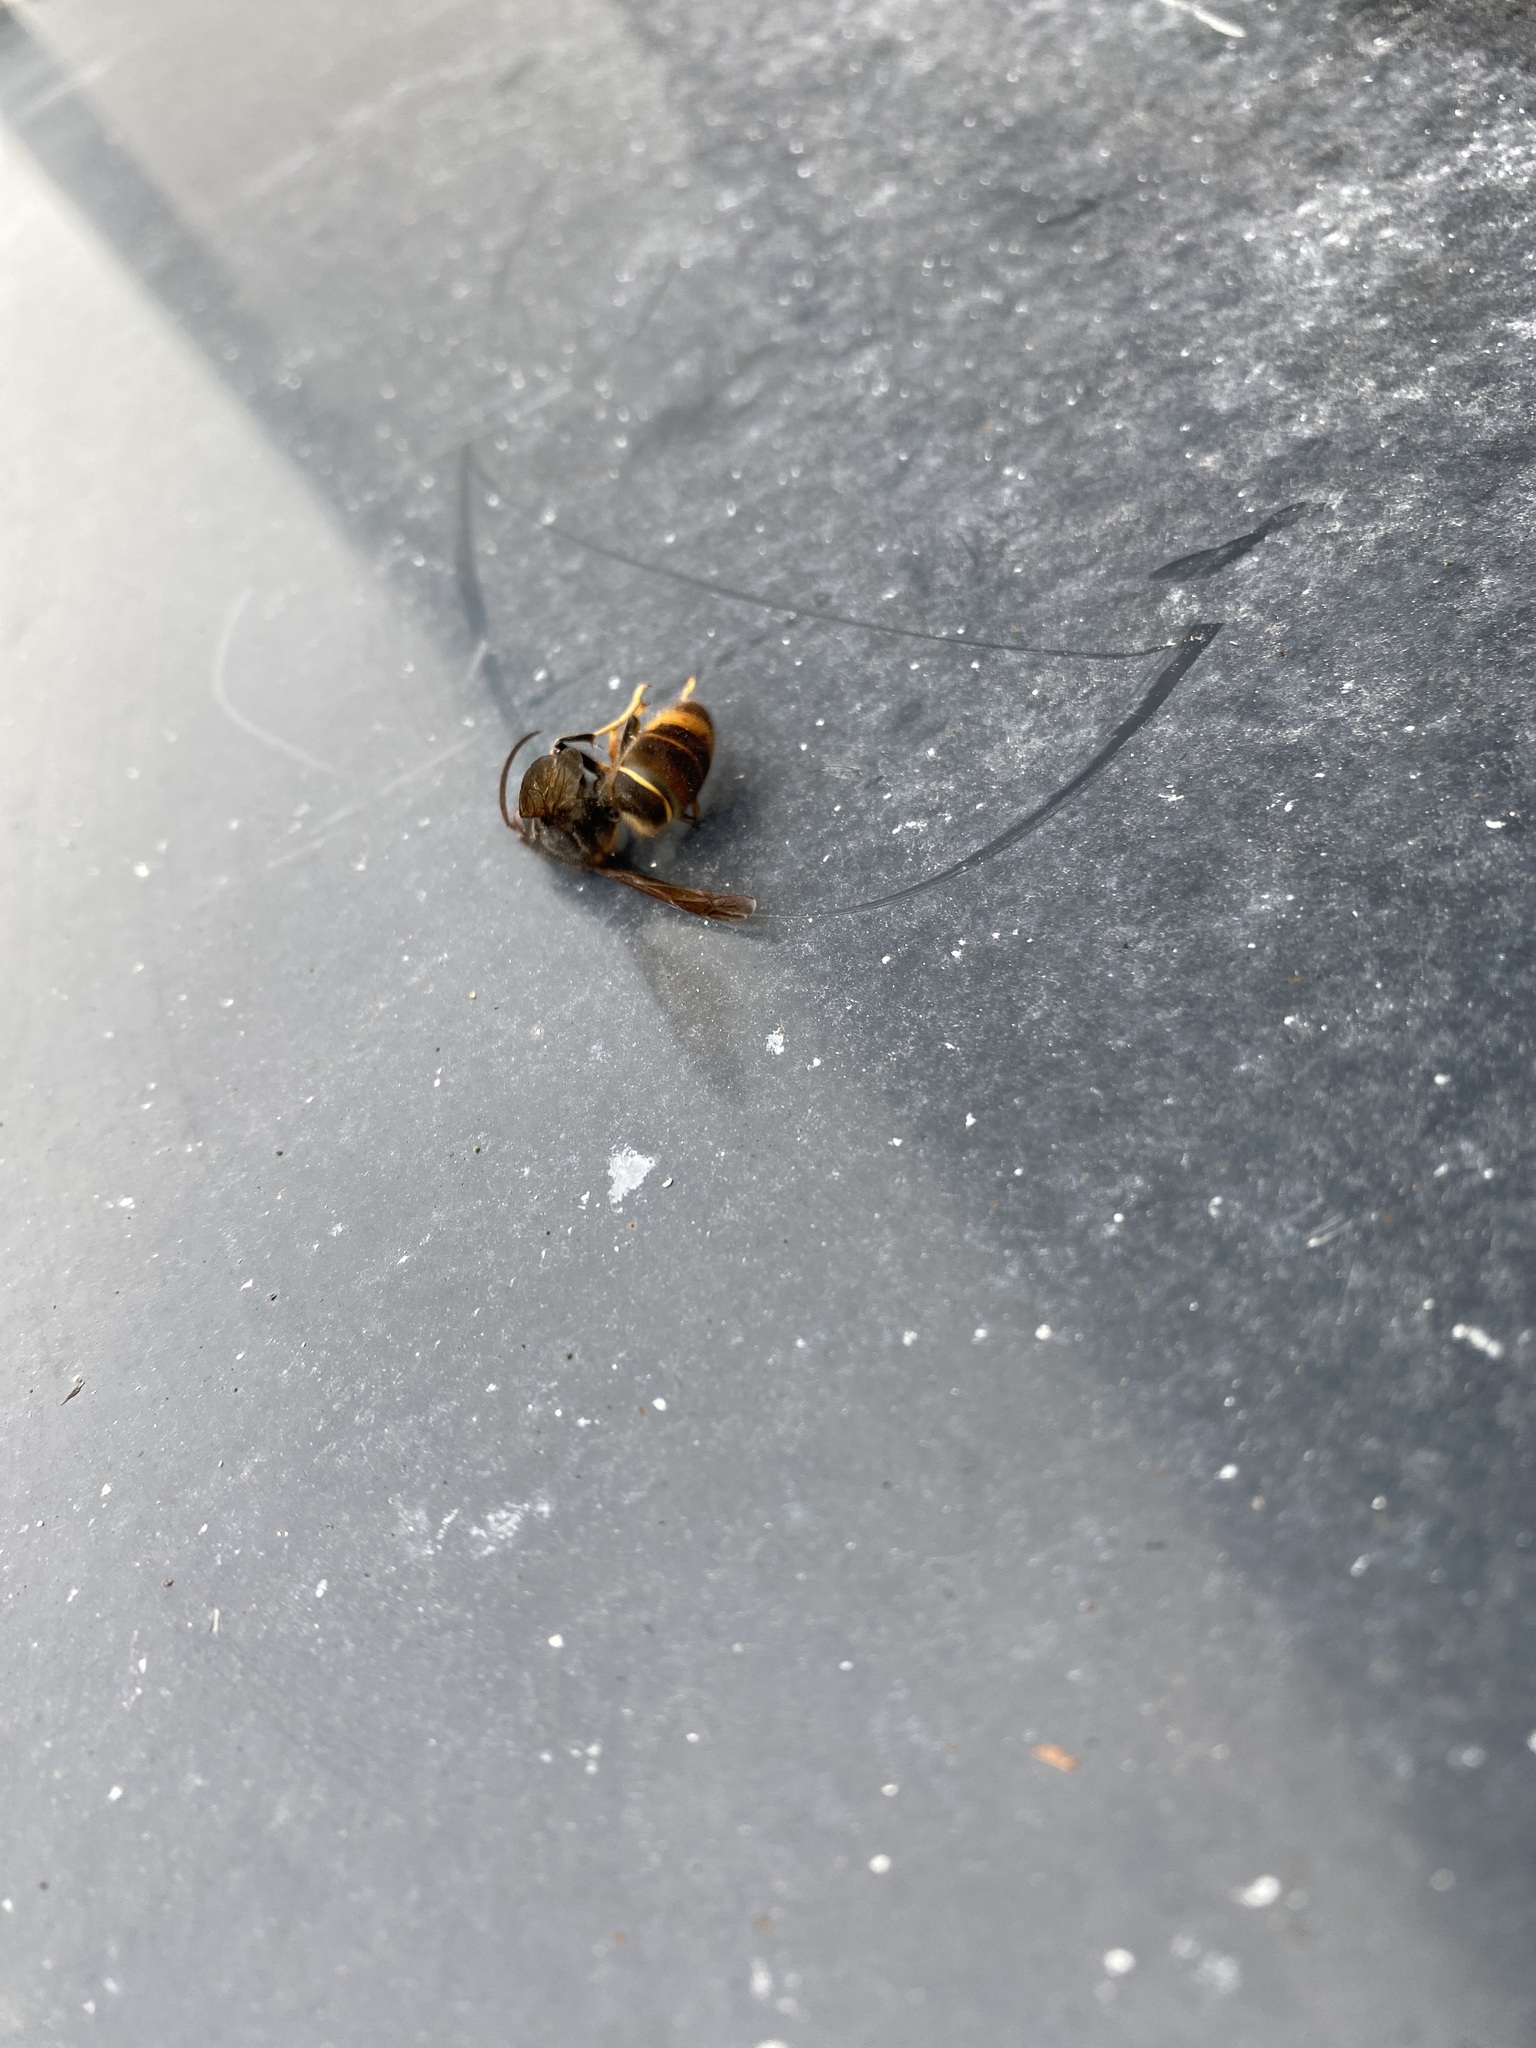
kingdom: Animalia
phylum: Arthropoda
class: Insecta
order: Hymenoptera
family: Vespidae
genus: Vespa
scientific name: Vespa velutina
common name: Asian hornet
